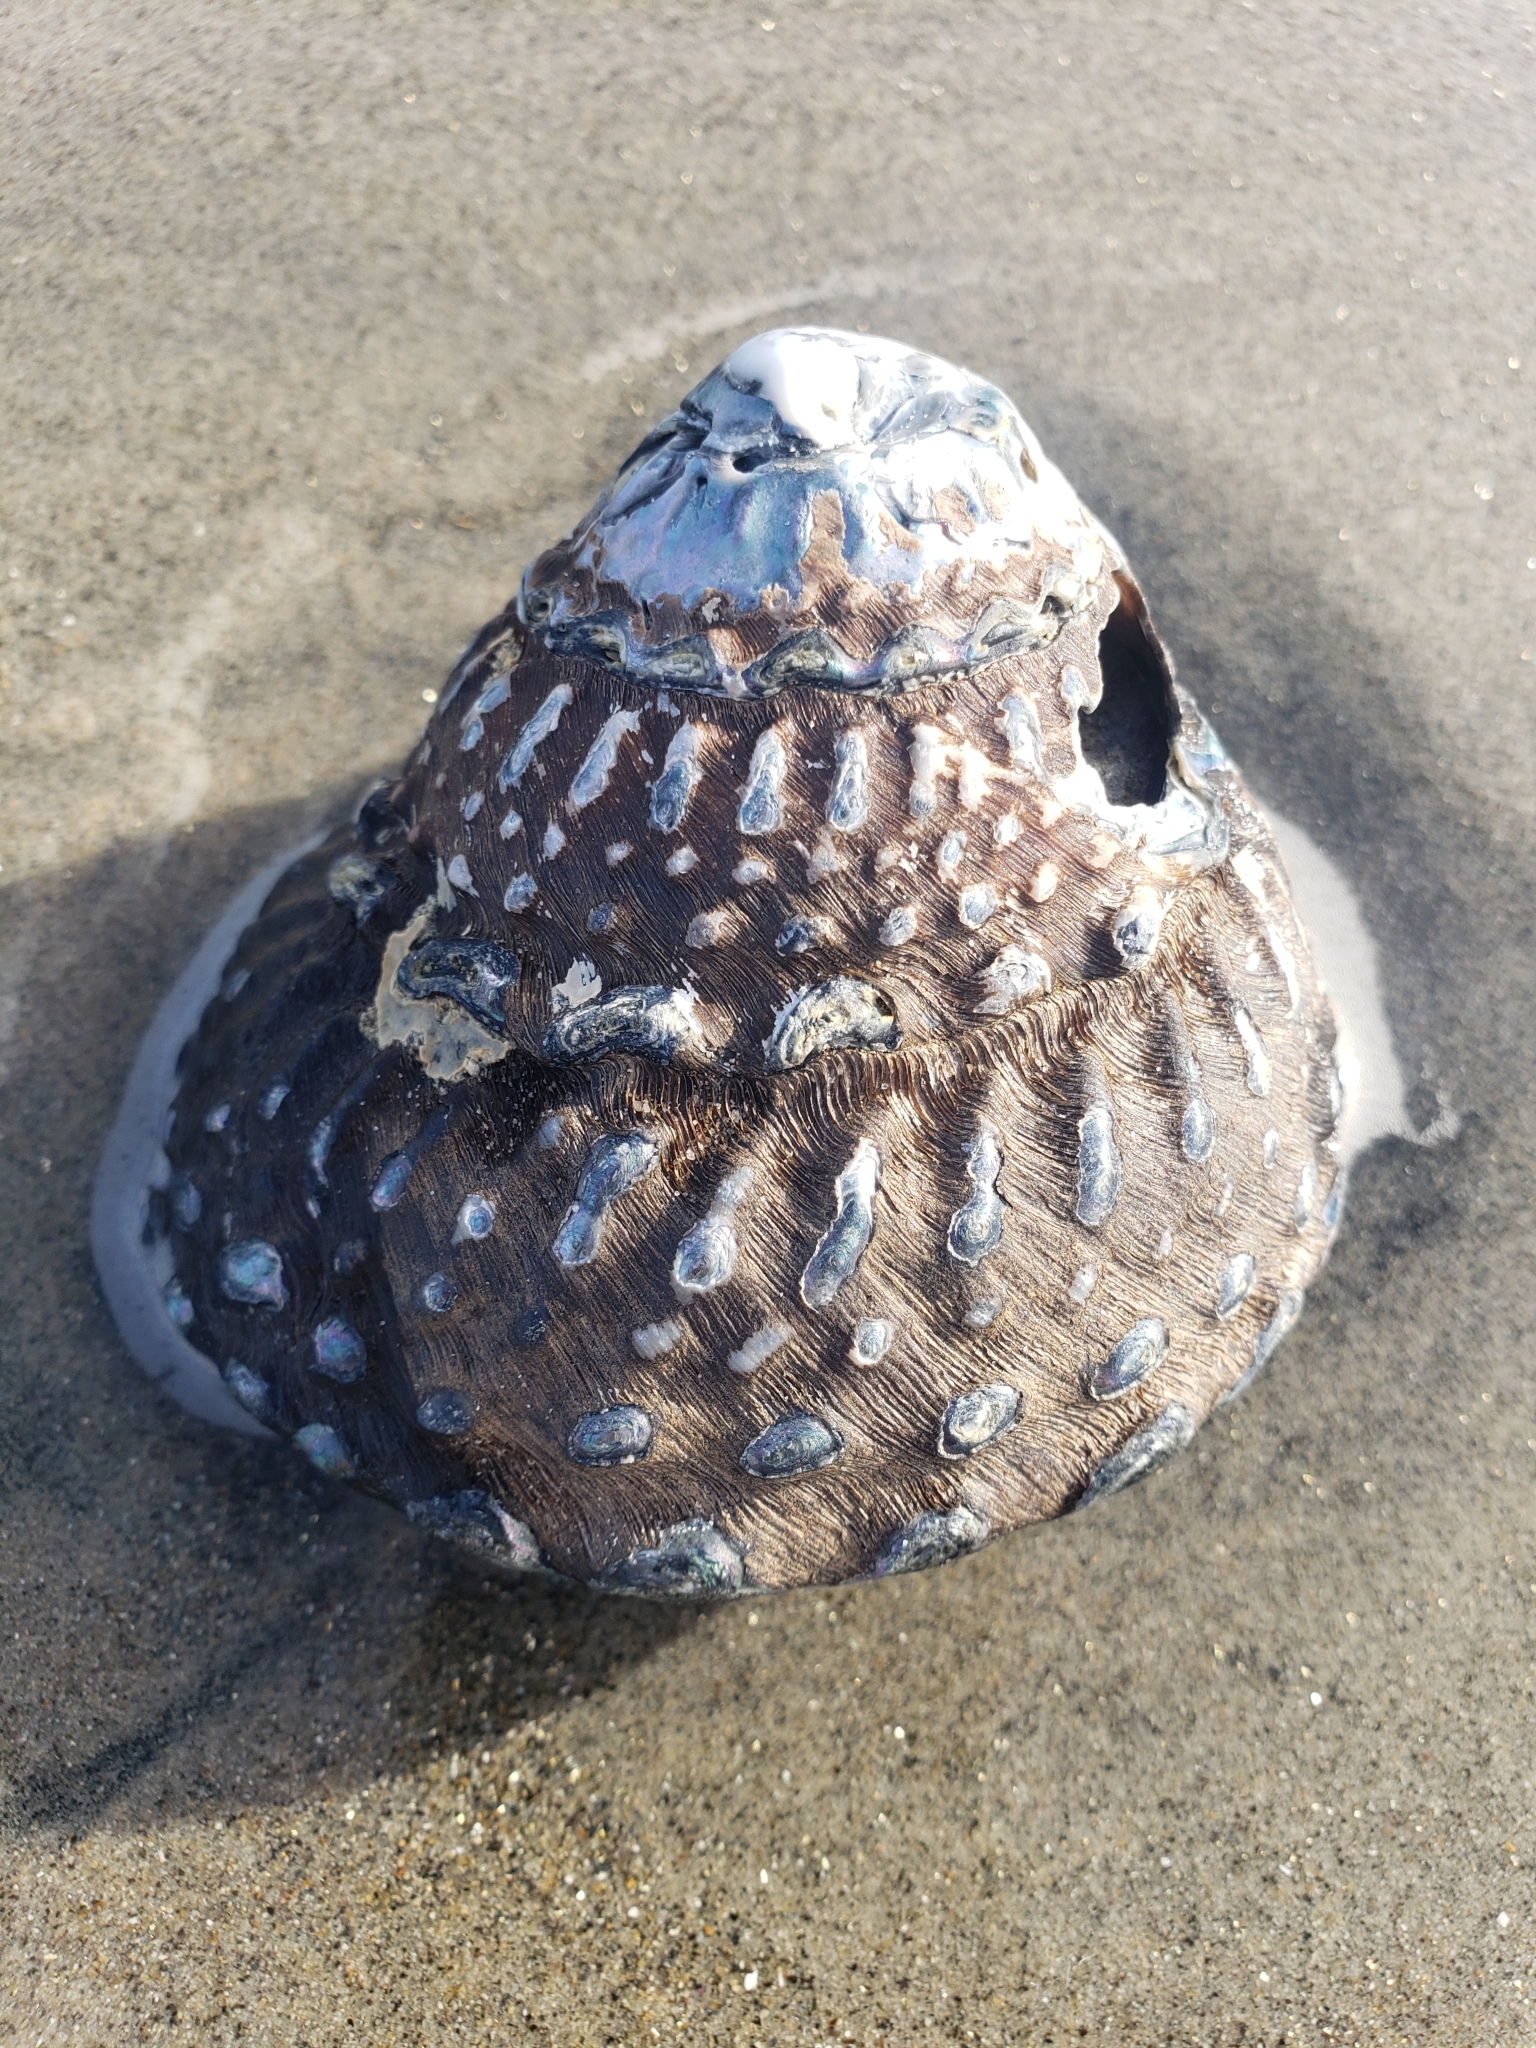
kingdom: Animalia
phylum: Mollusca
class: Gastropoda
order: Trochida
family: Turbinidae
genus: Megastraea
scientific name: Megastraea undosa
